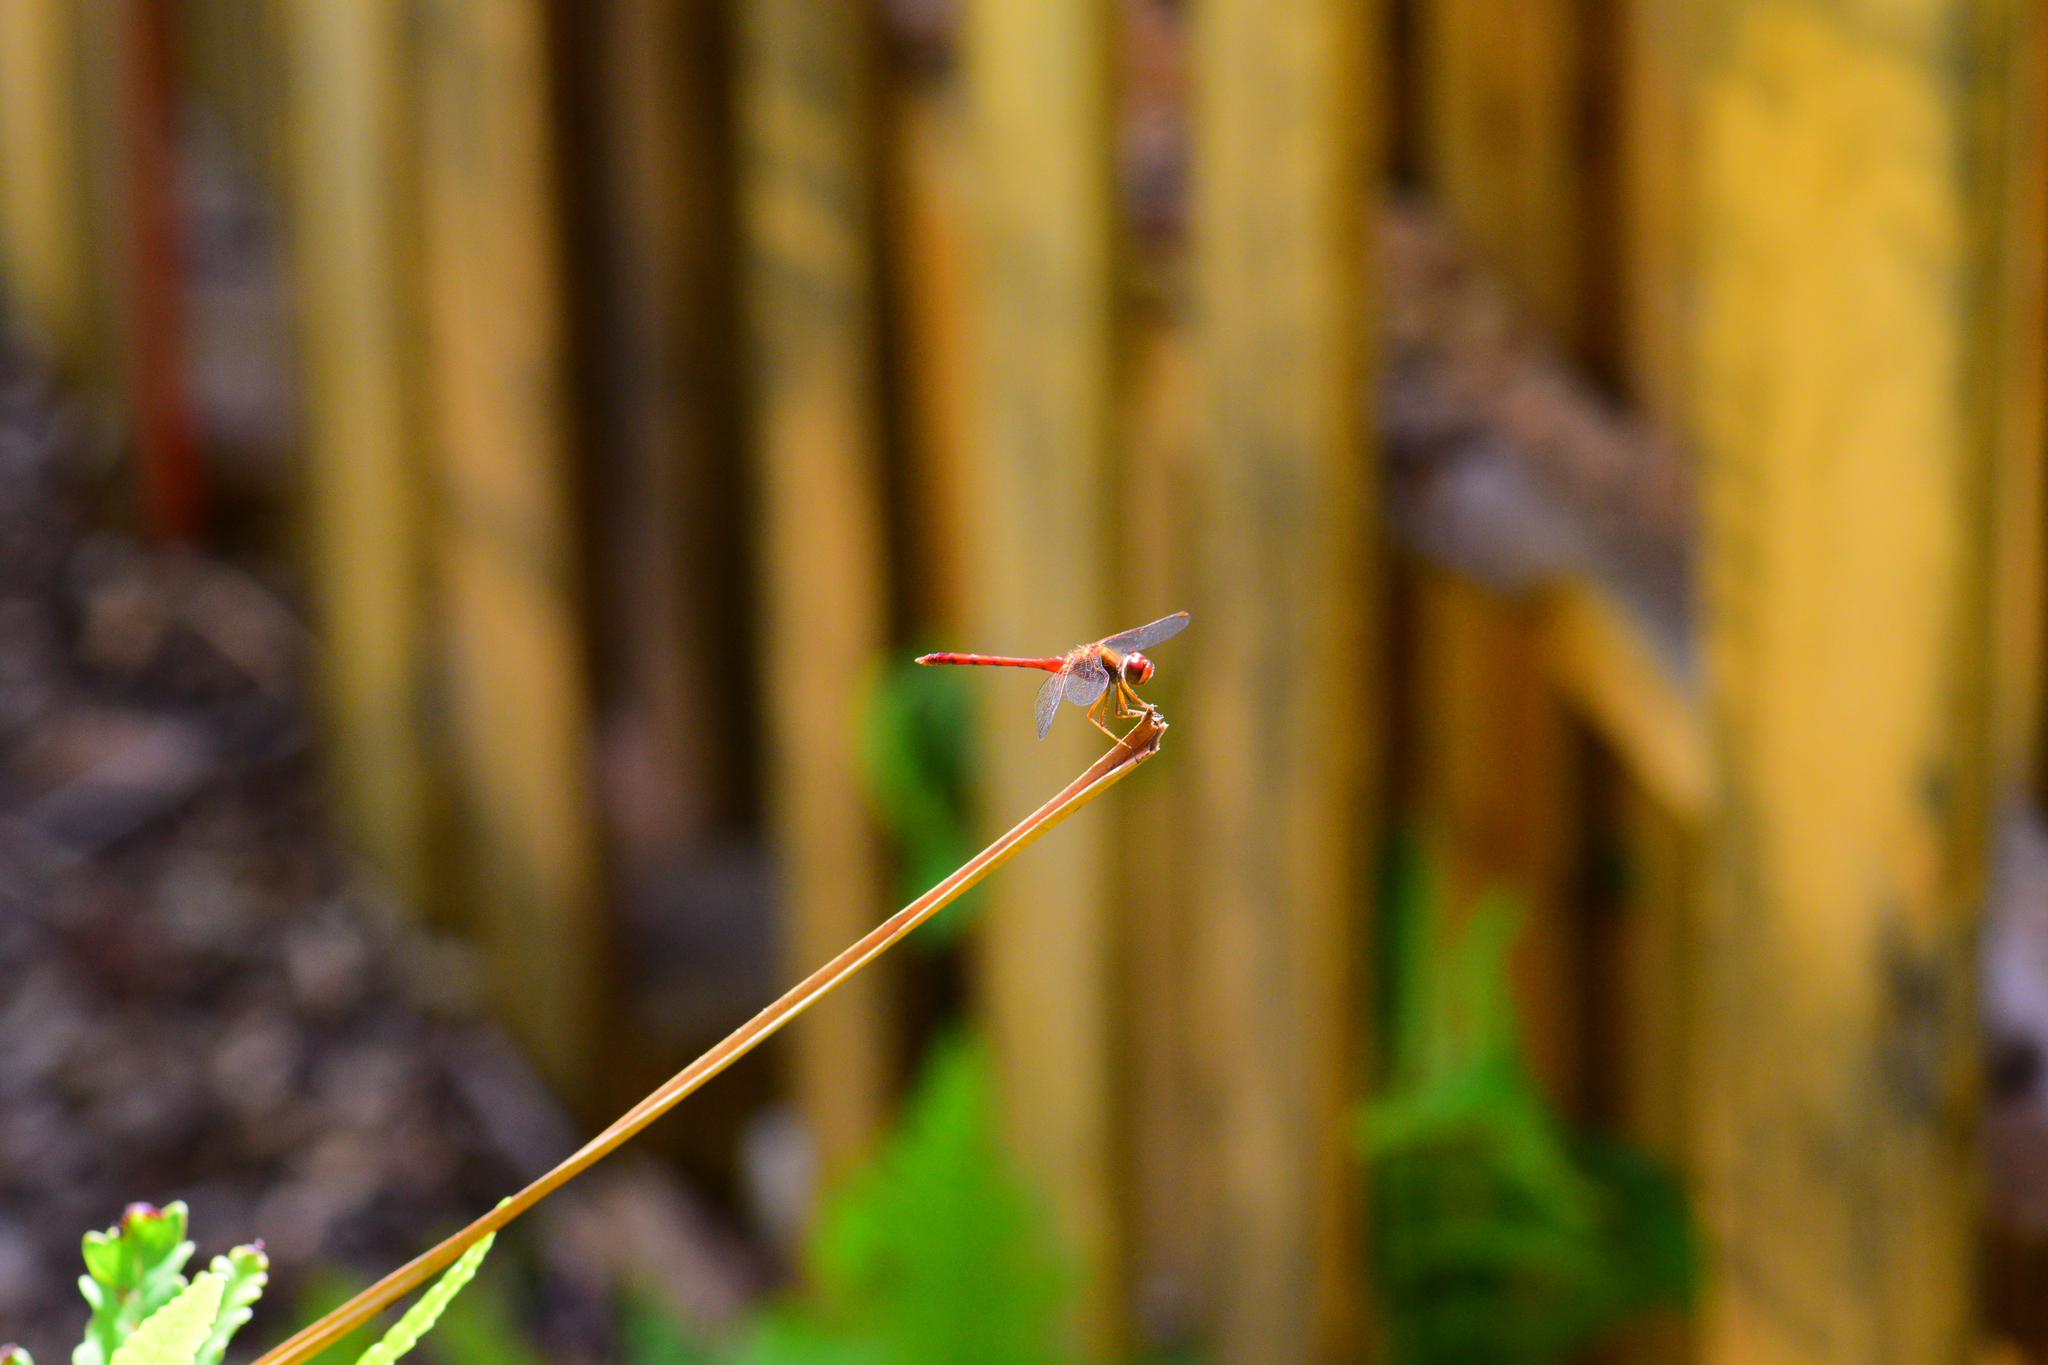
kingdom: Animalia
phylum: Arthropoda
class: Insecta
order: Odonata
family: Libellulidae
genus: Sympetrum
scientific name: Sympetrum vicinum
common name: Autumn meadowhawk
